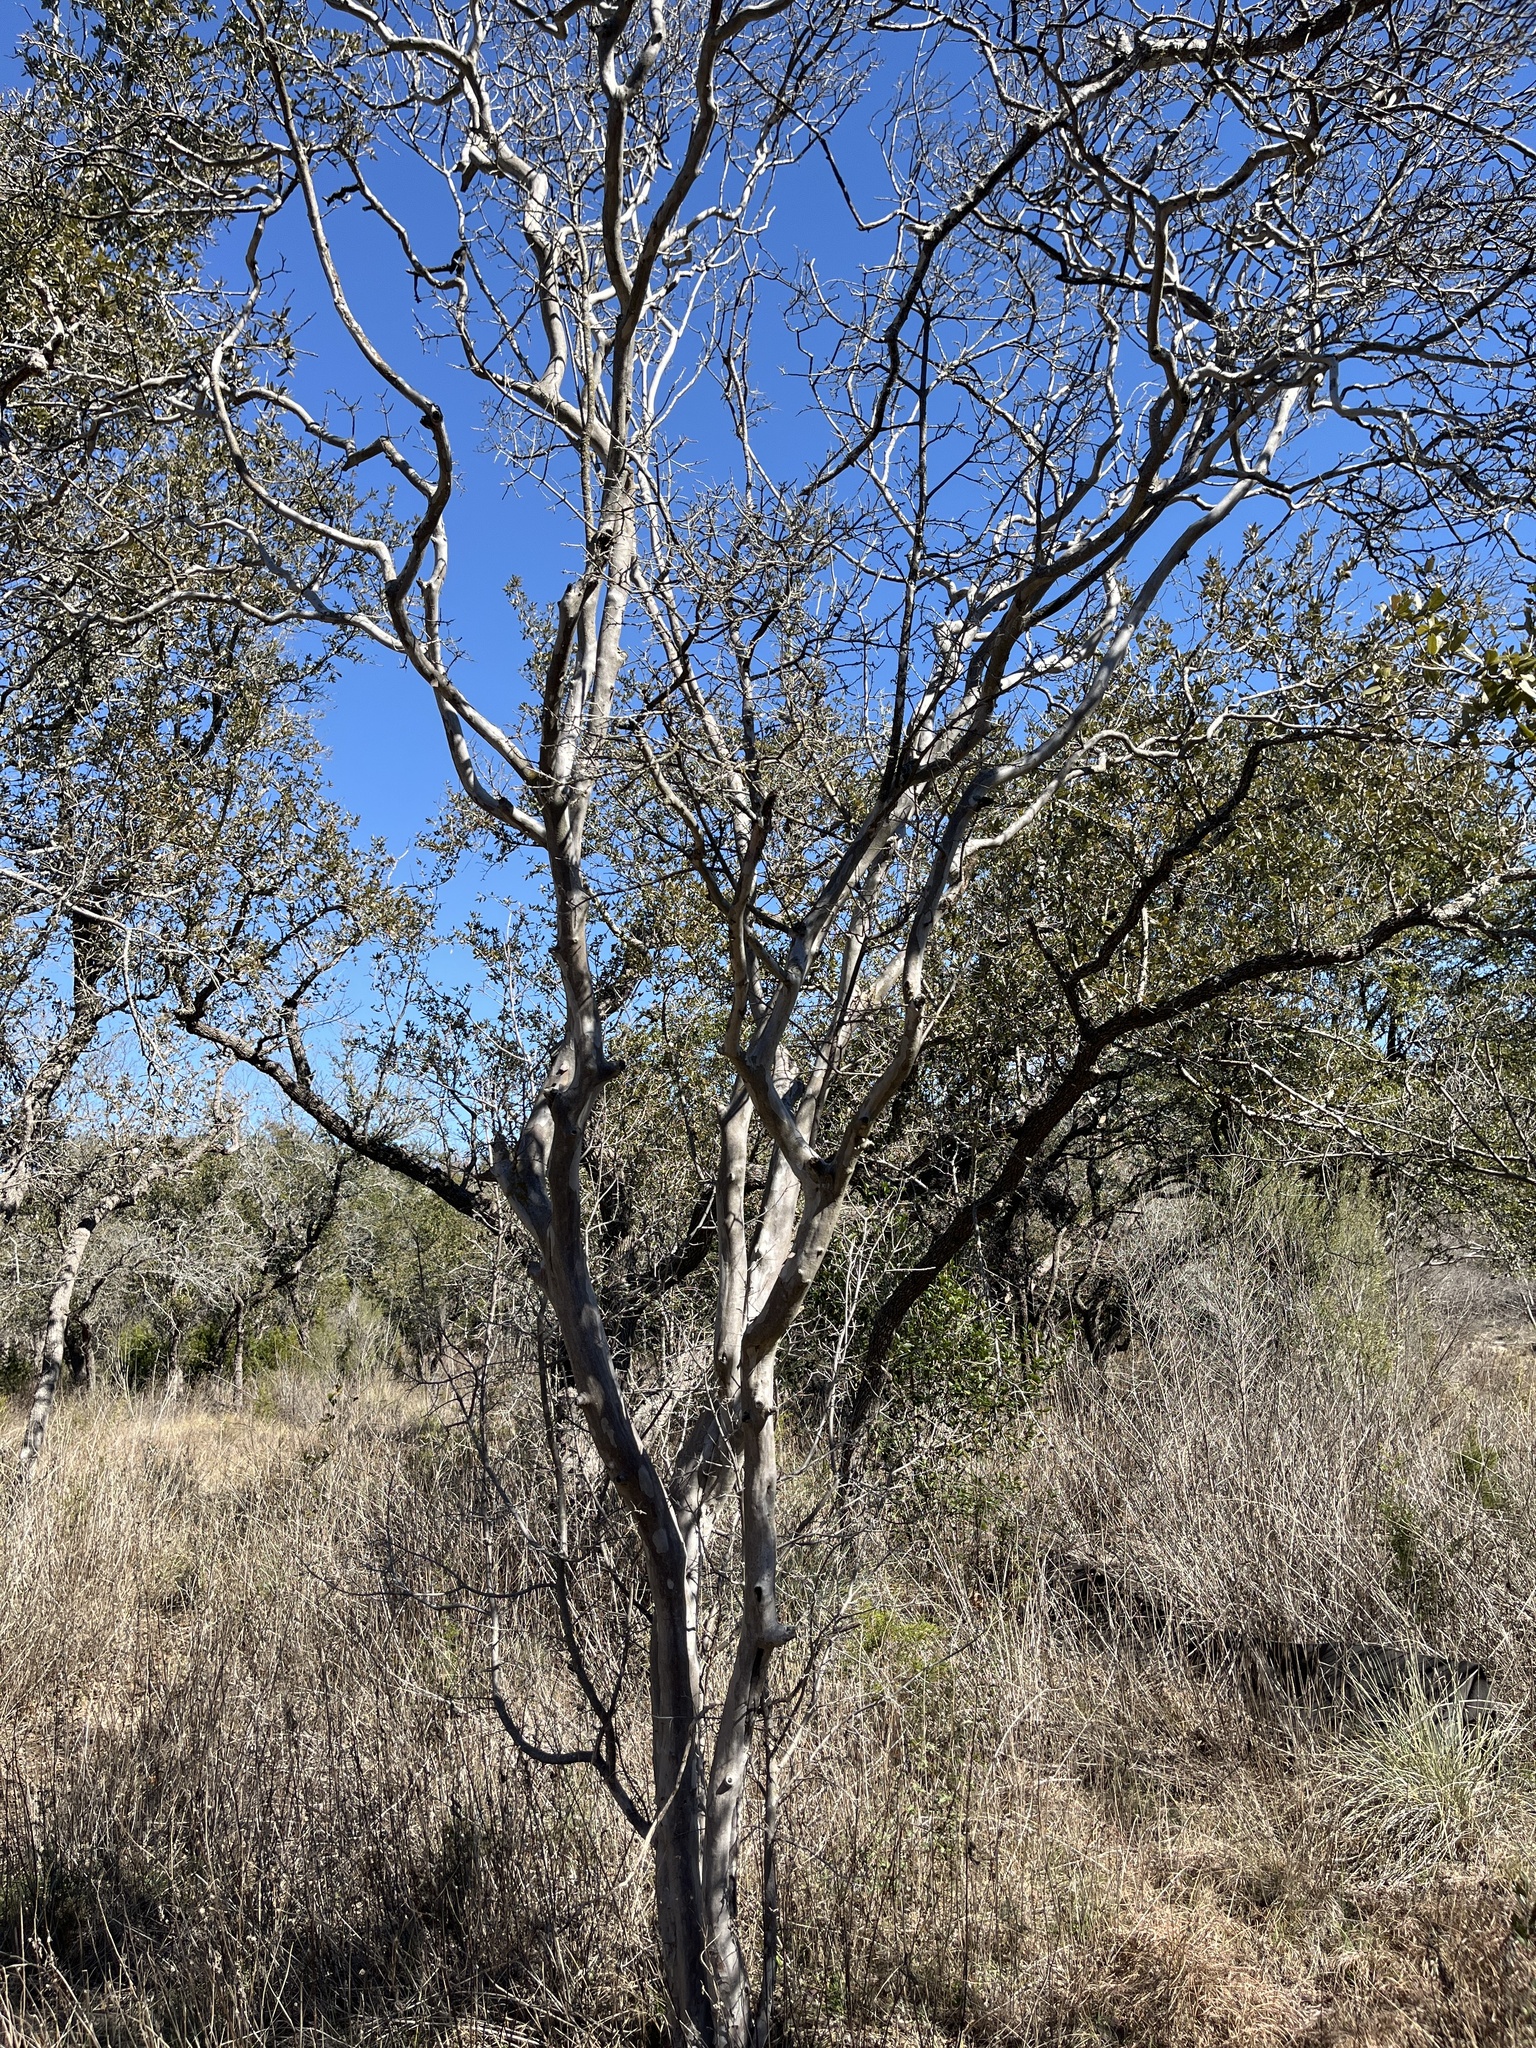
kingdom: Plantae
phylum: Tracheophyta
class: Magnoliopsida
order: Ericales
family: Ebenaceae
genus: Diospyros
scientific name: Diospyros texana
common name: Texas persimmon
